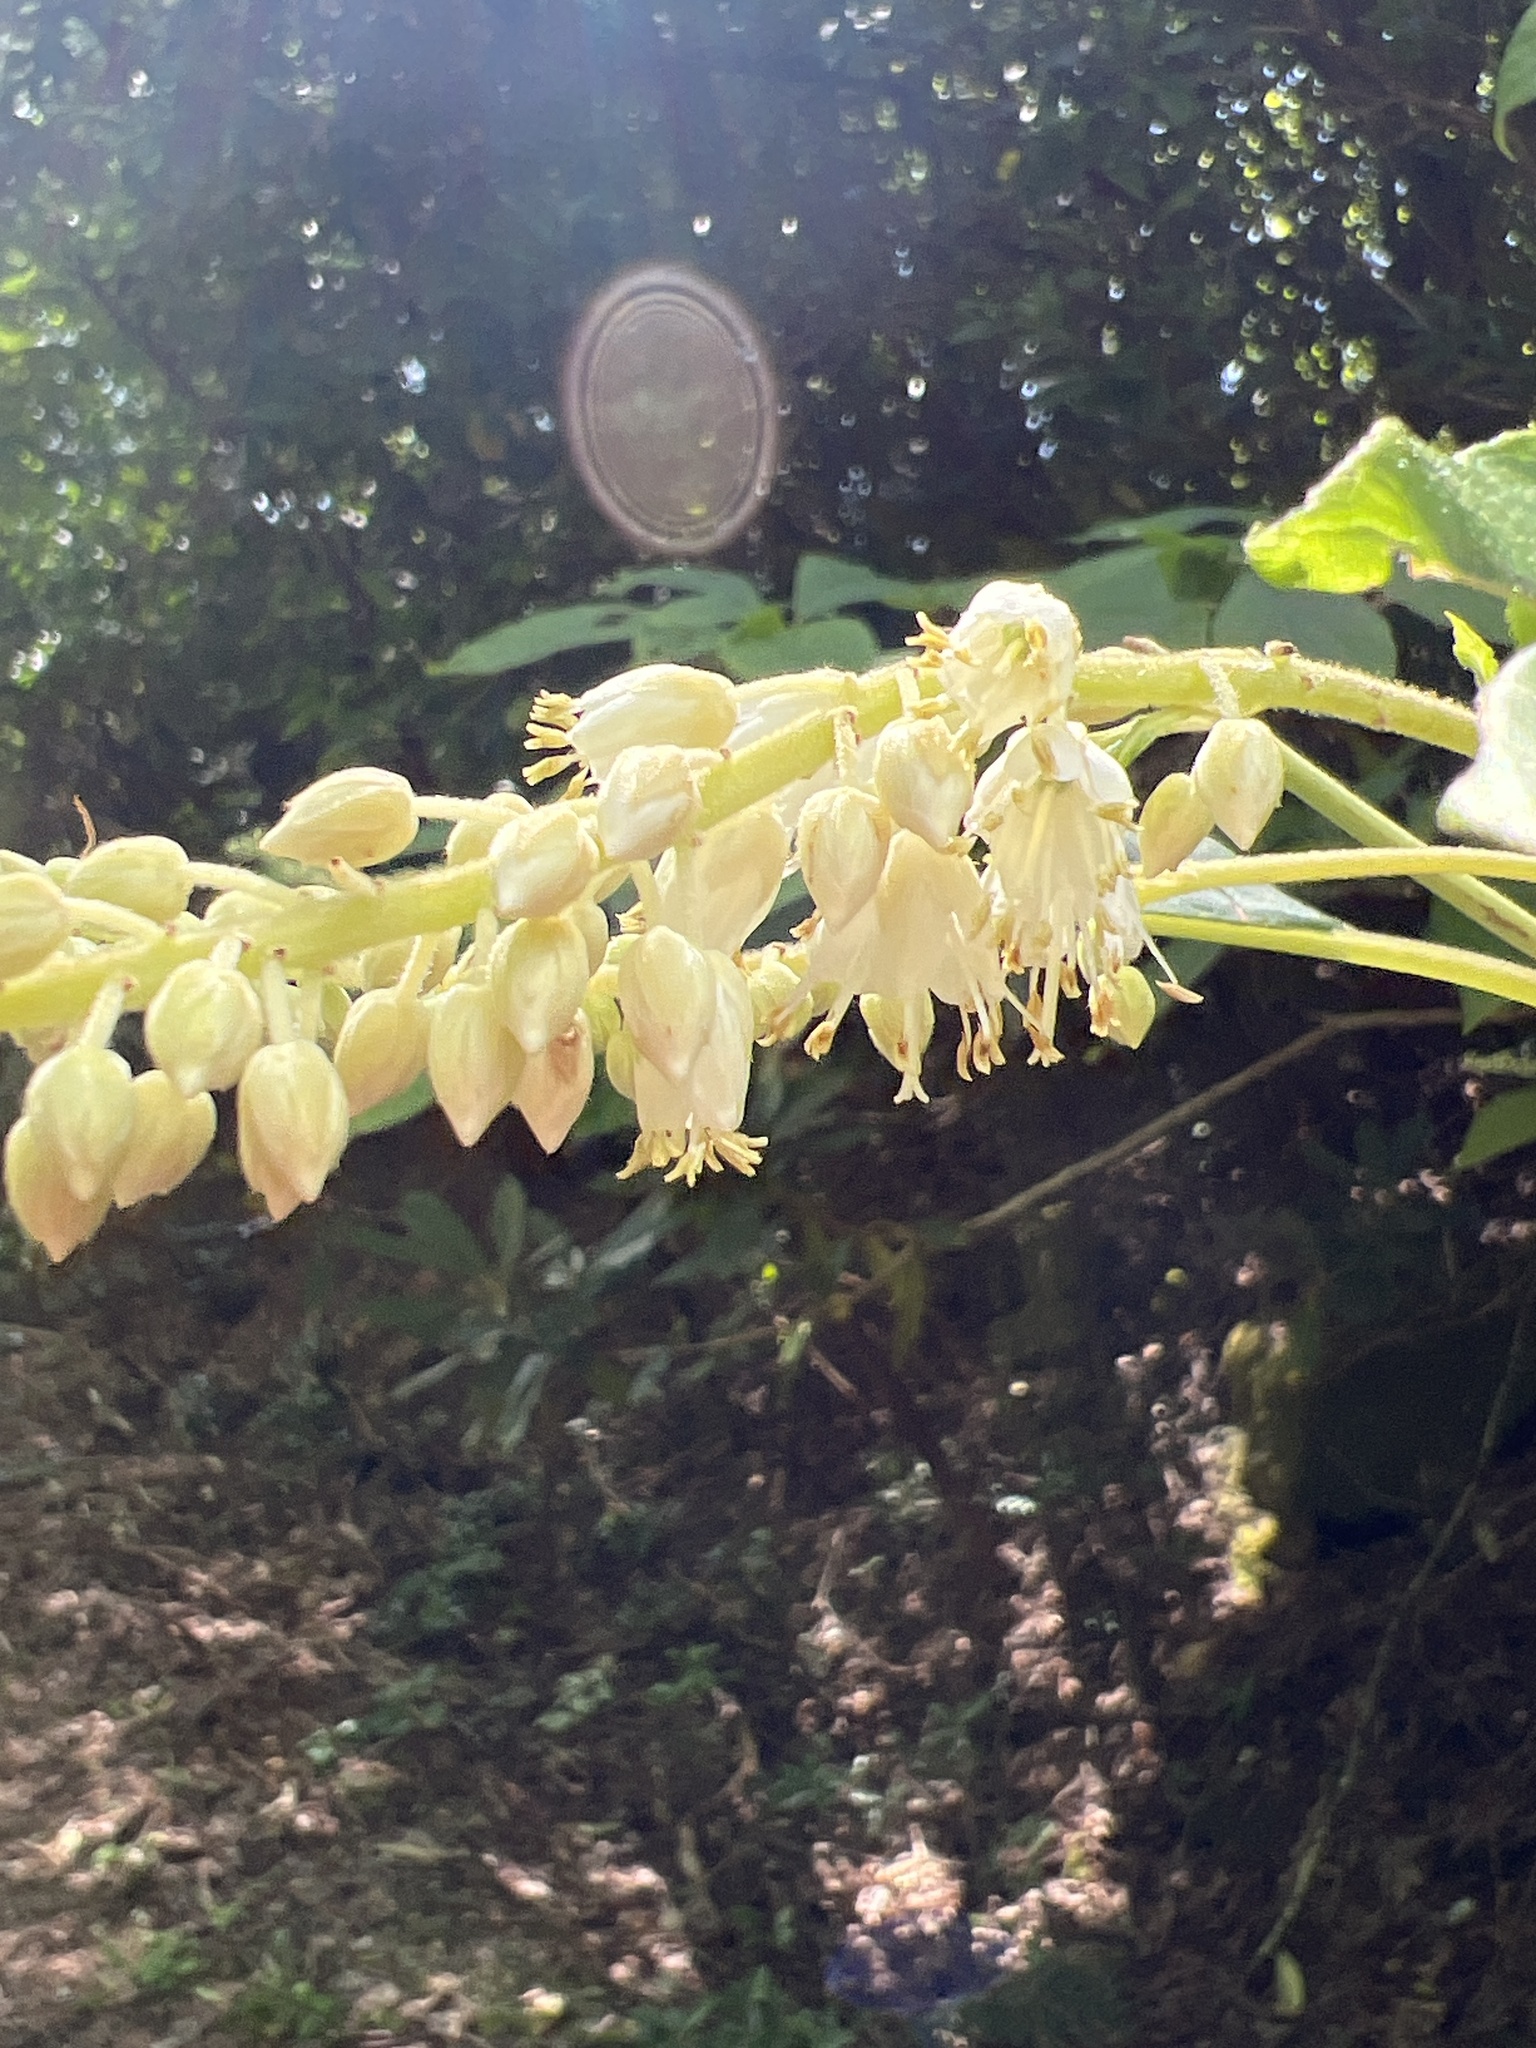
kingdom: Plantae
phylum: Tracheophyta
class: Magnoliopsida
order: Ericales
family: Clethraceae
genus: Clethra
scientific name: Clethra acuminata
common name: Mountain sweet pepperbush
